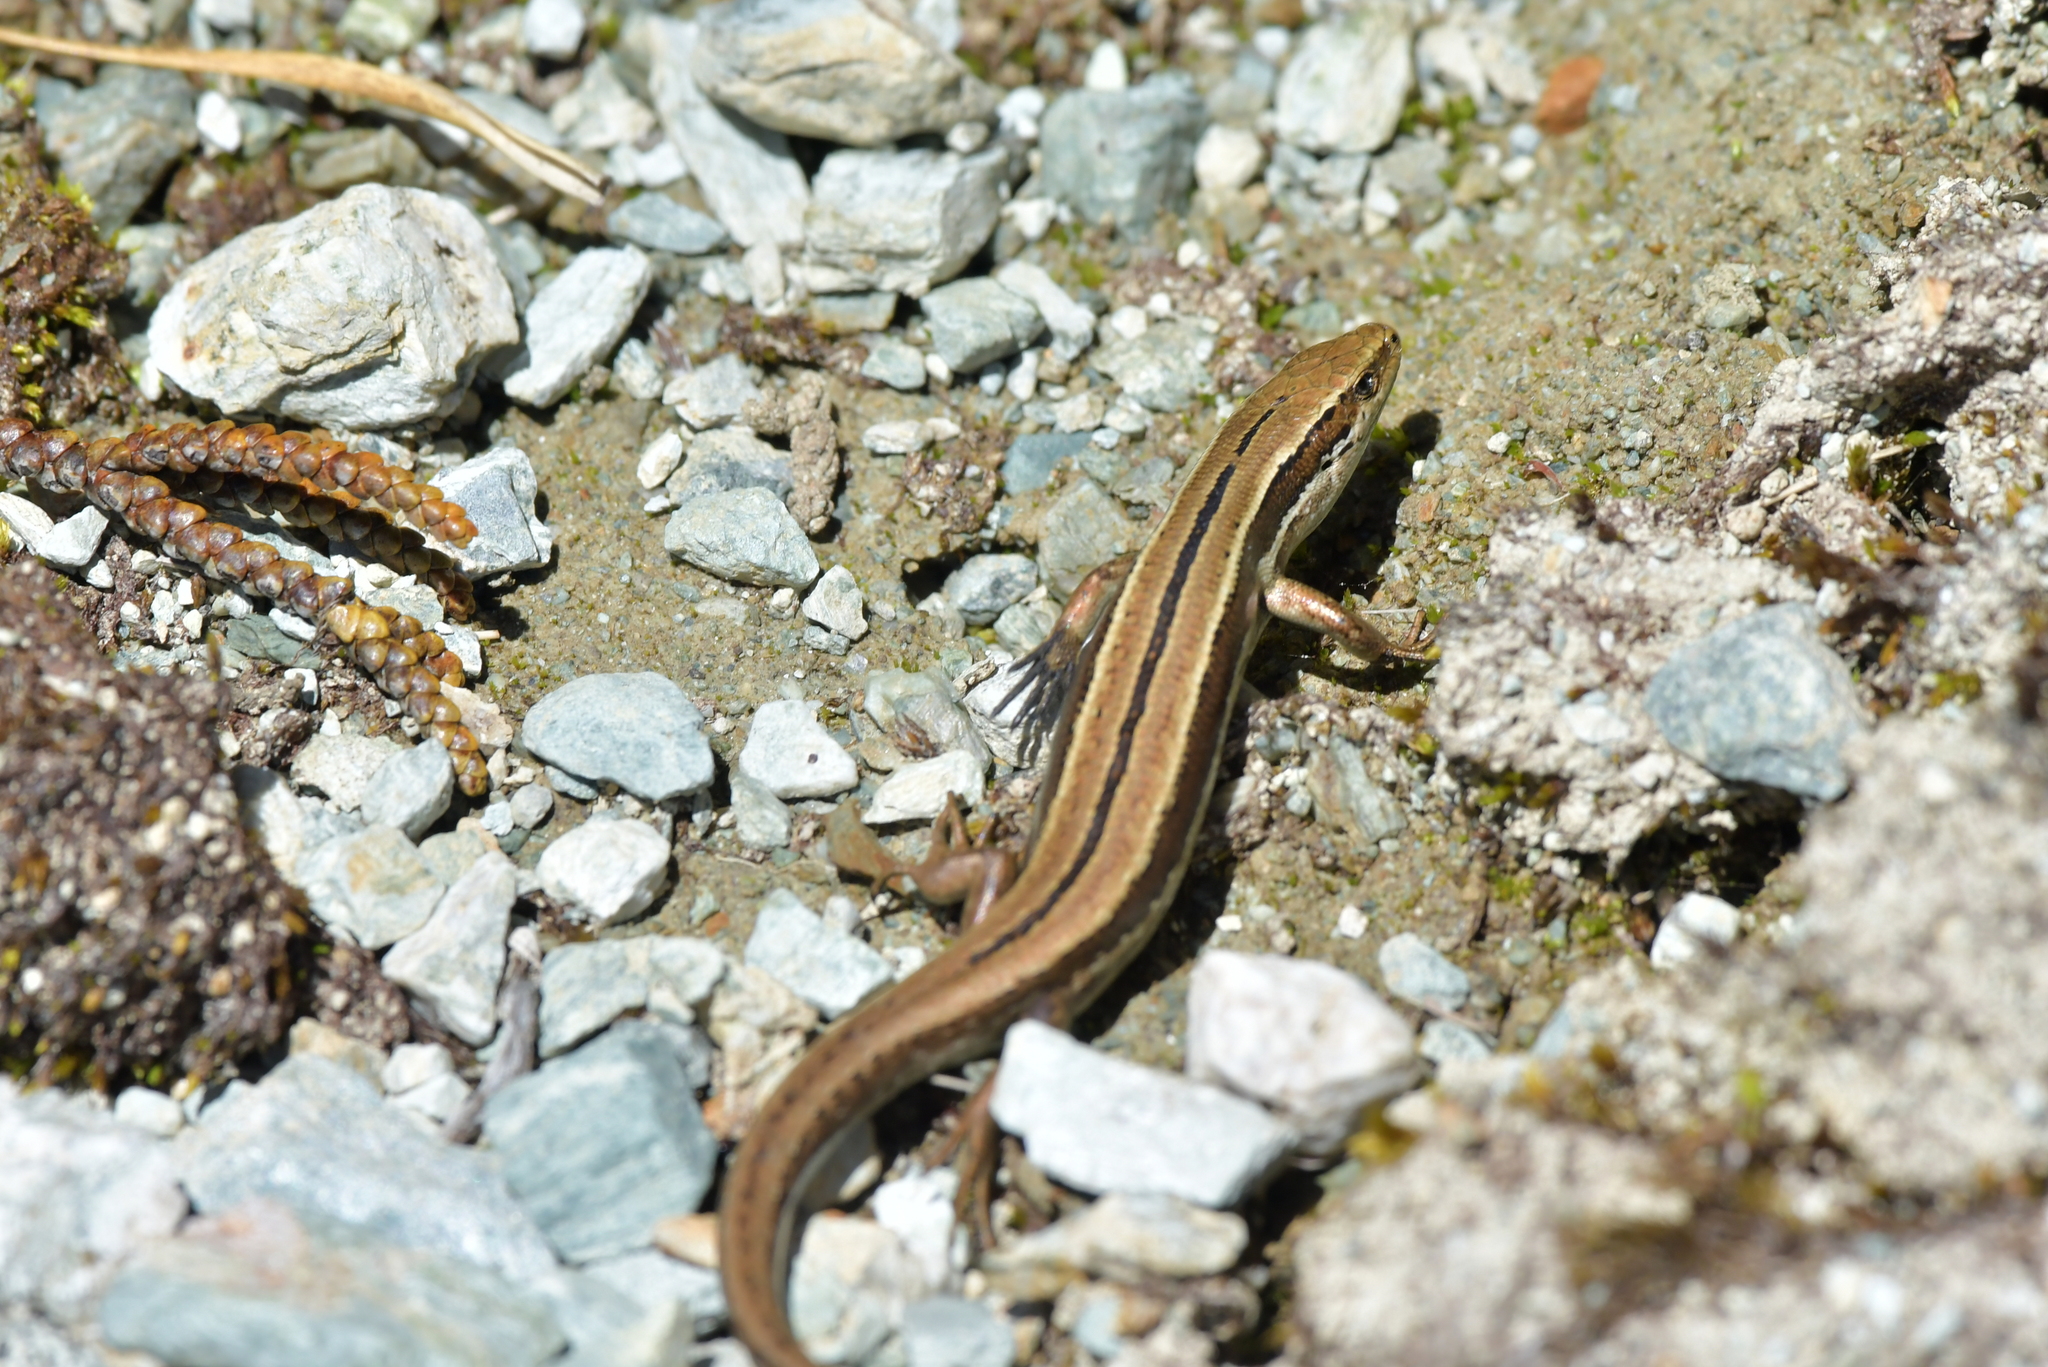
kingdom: Animalia
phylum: Chordata
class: Squamata
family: Scincidae
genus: Oligosoma
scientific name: Oligosoma repens
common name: Eyres skink
